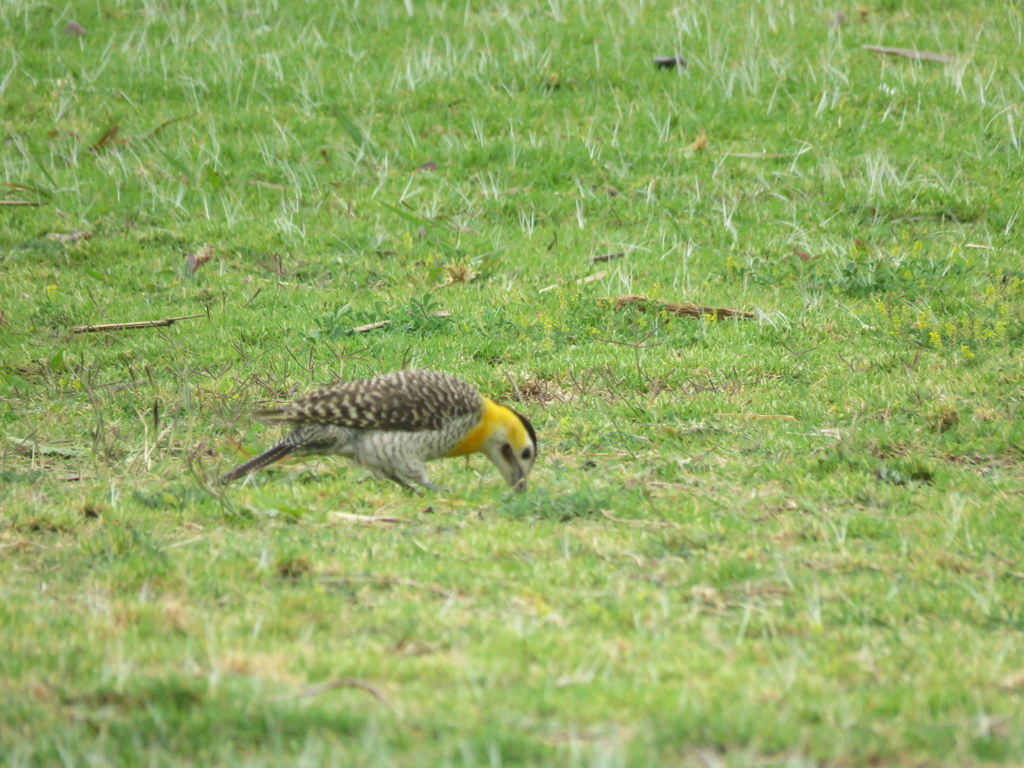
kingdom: Animalia
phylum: Chordata
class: Aves
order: Piciformes
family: Picidae
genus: Colaptes
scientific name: Colaptes campestris
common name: Campo flicker
